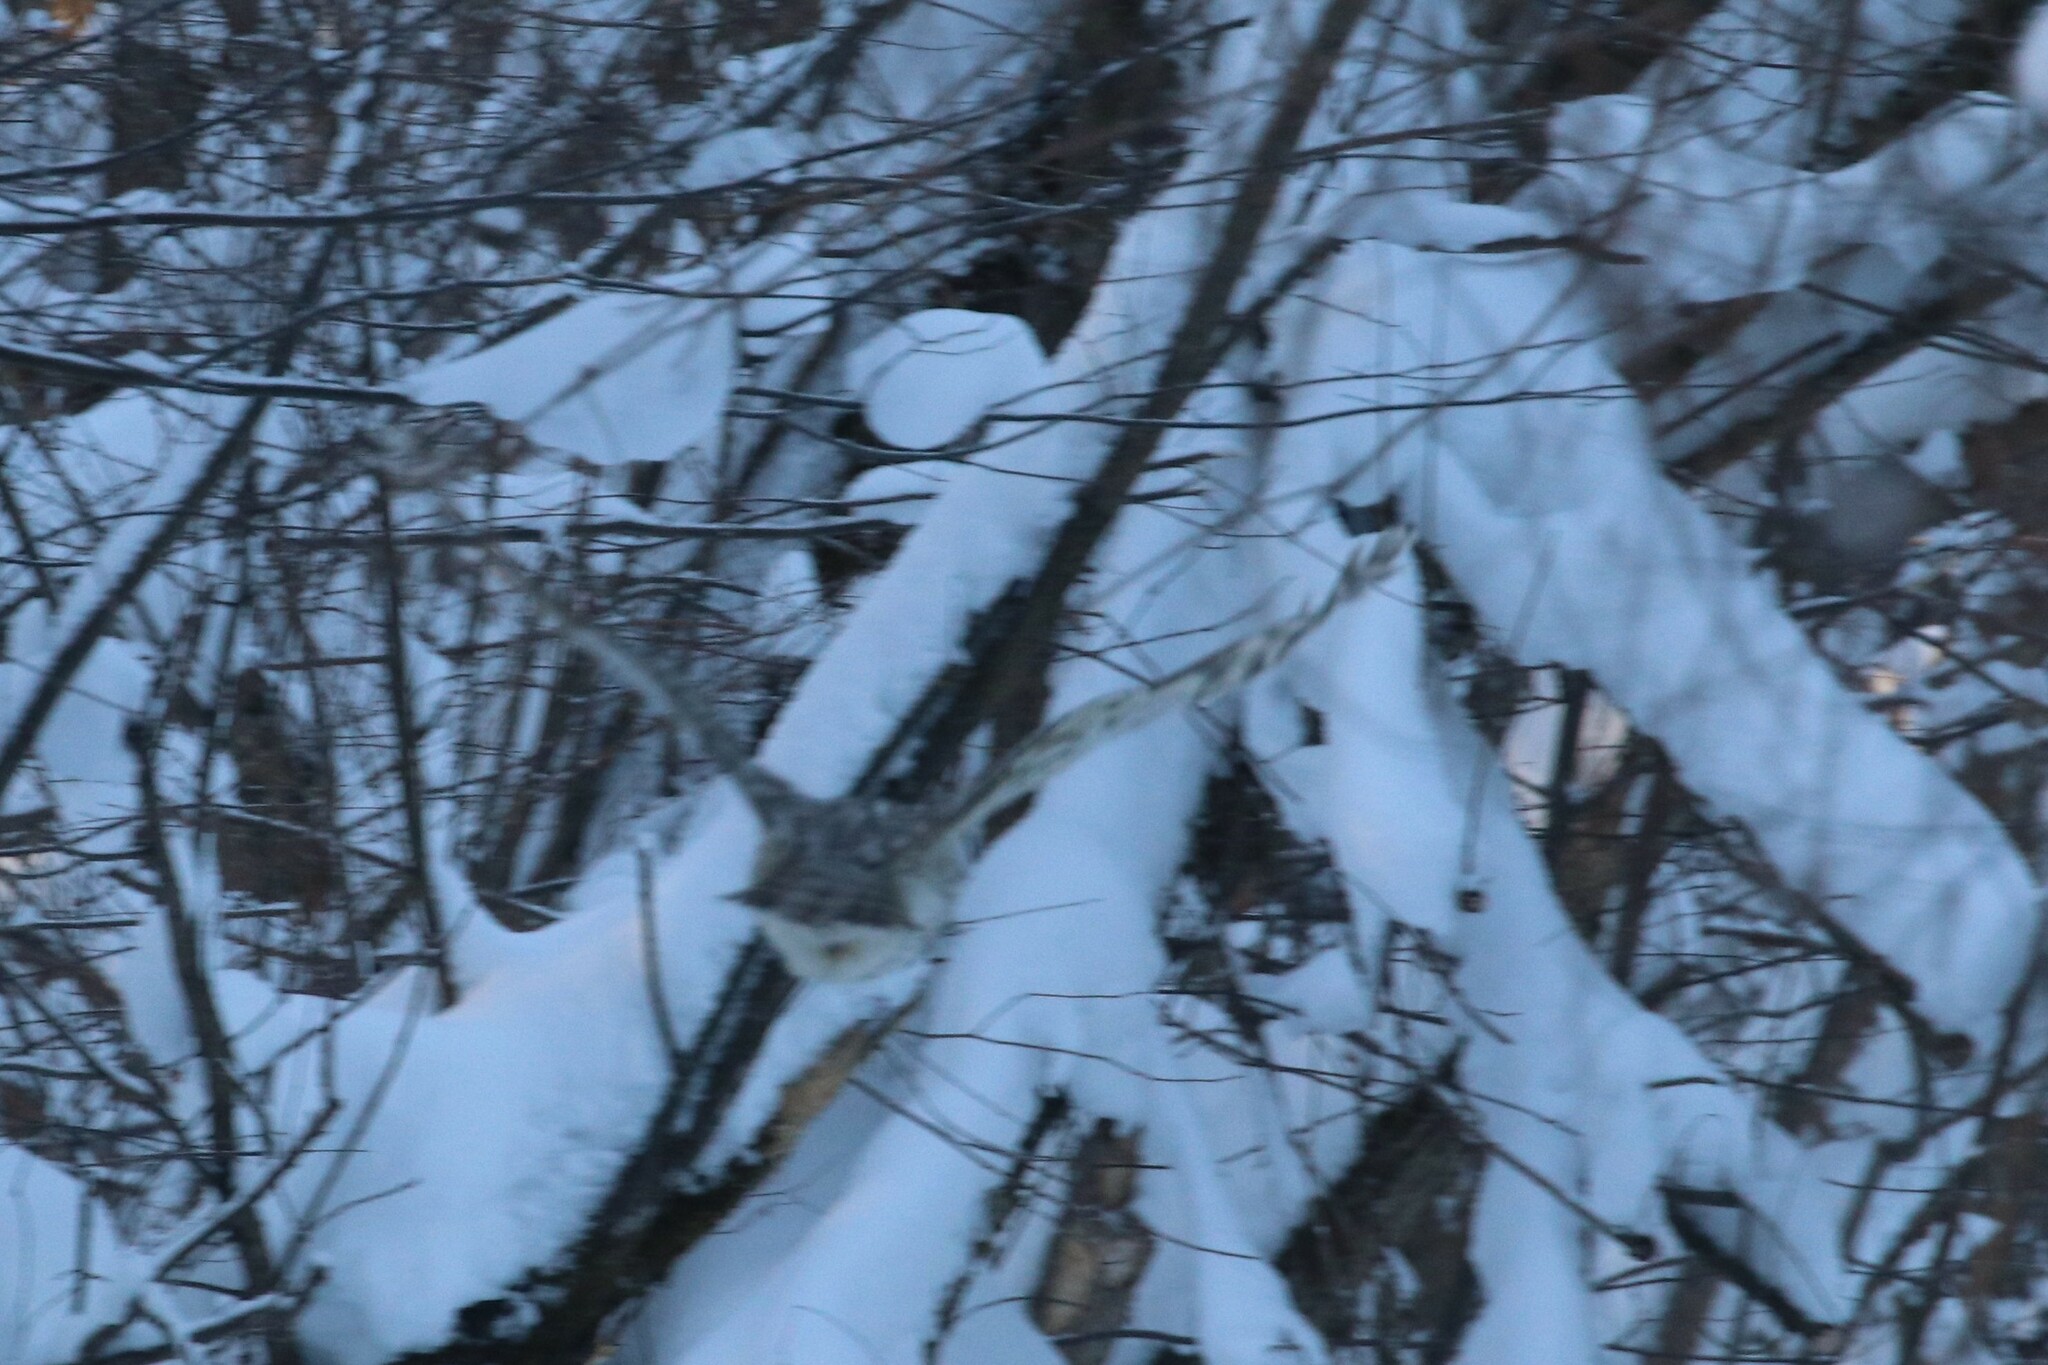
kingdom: Animalia
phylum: Chordata
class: Aves
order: Strigiformes
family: Strigidae
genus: Strix
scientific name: Strix uralensis
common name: Ural owl
